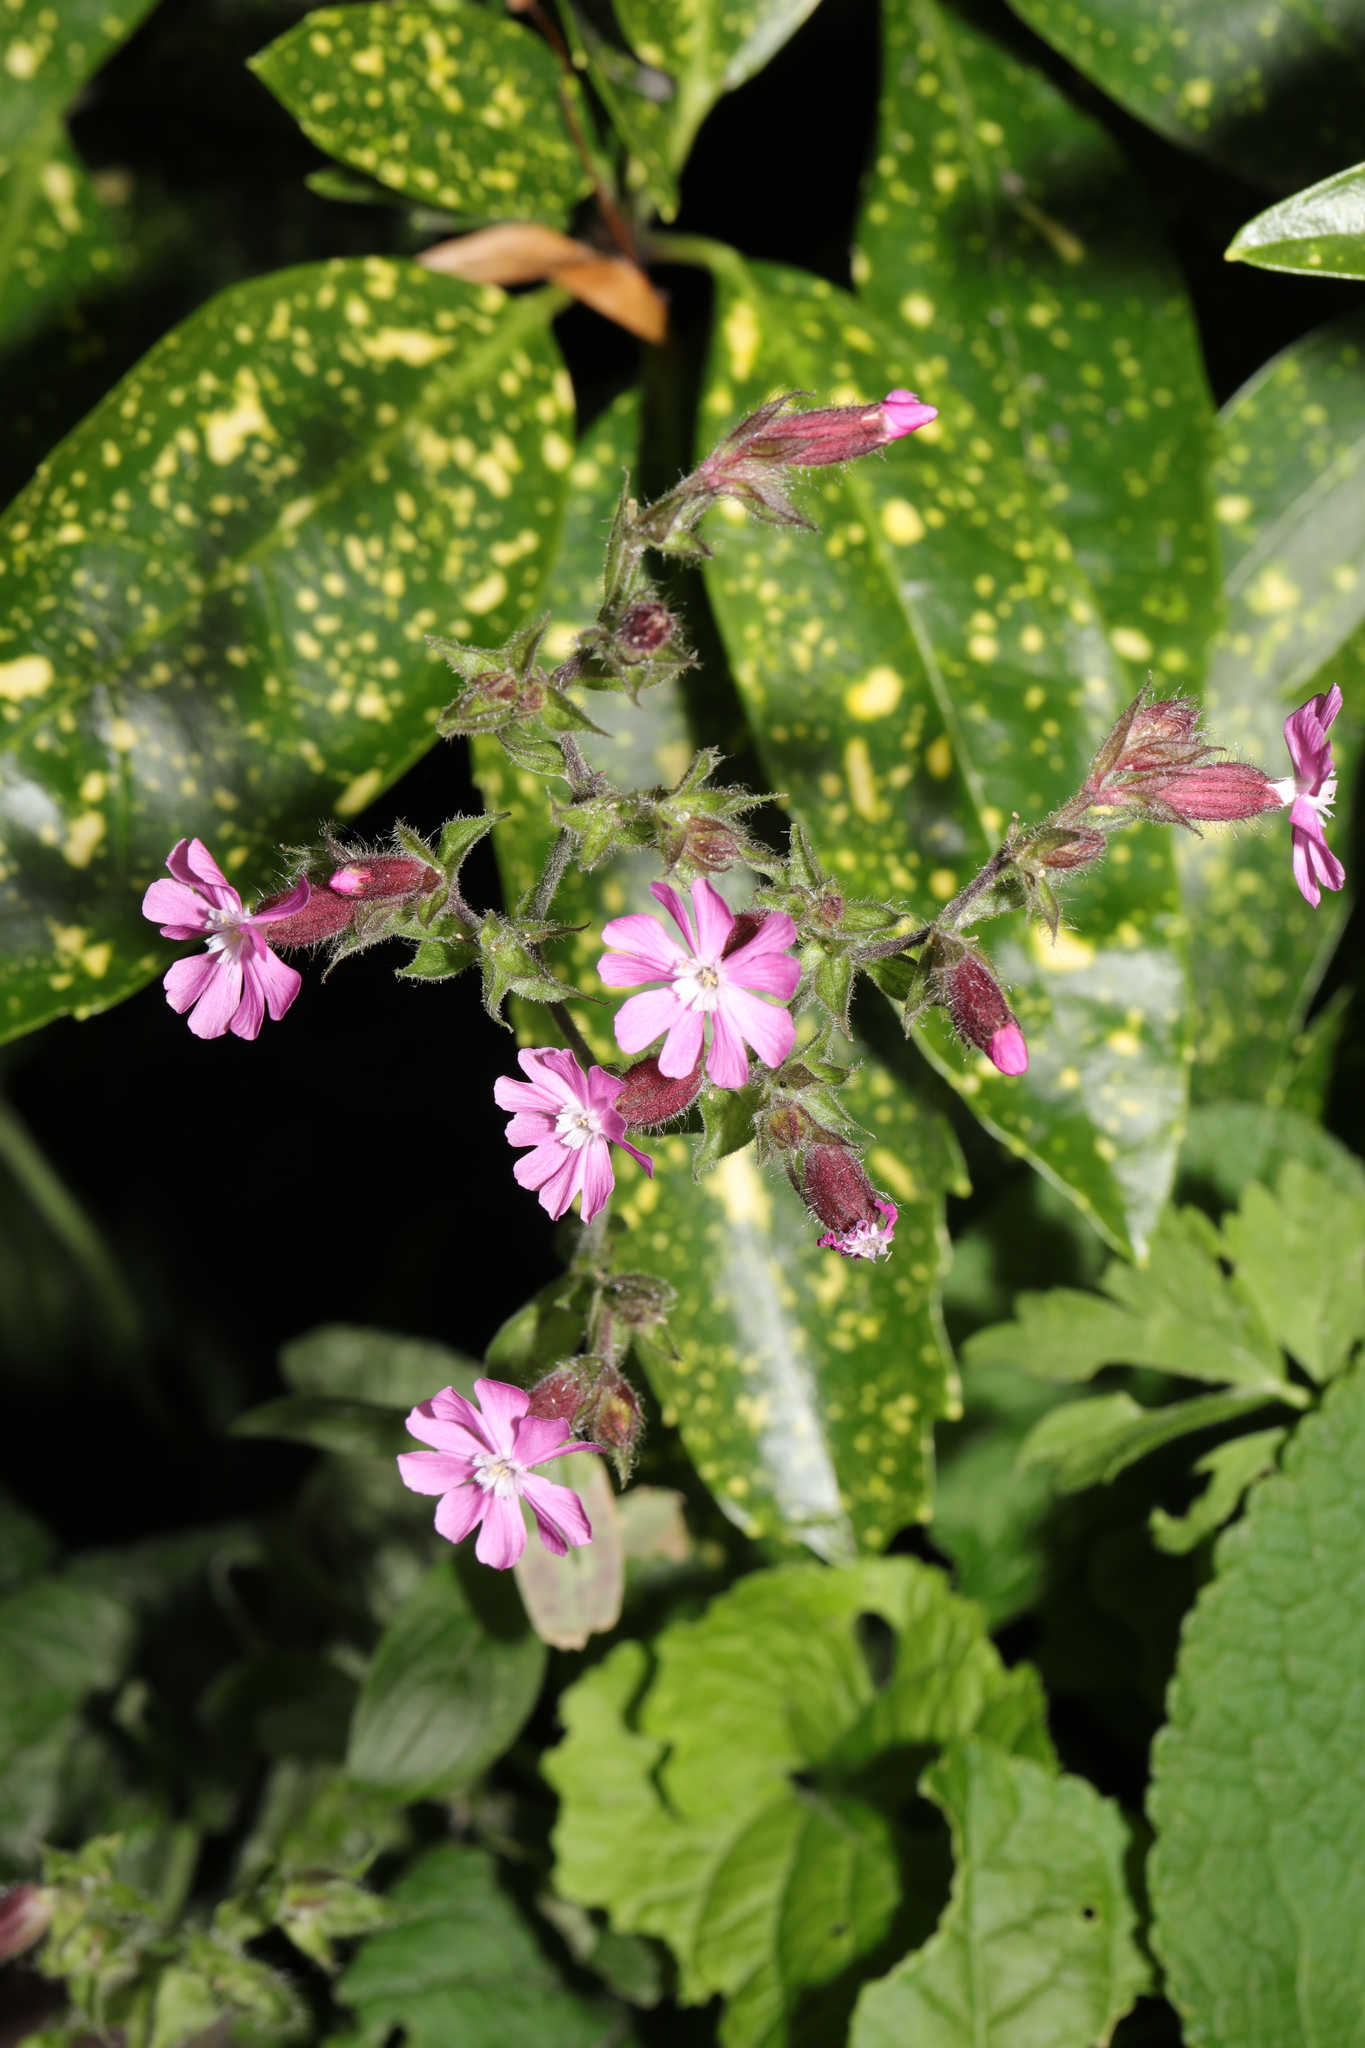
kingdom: Plantae
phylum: Tracheophyta
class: Magnoliopsida
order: Caryophyllales
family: Caryophyllaceae
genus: Silene
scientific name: Silene dioica
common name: Red campion
